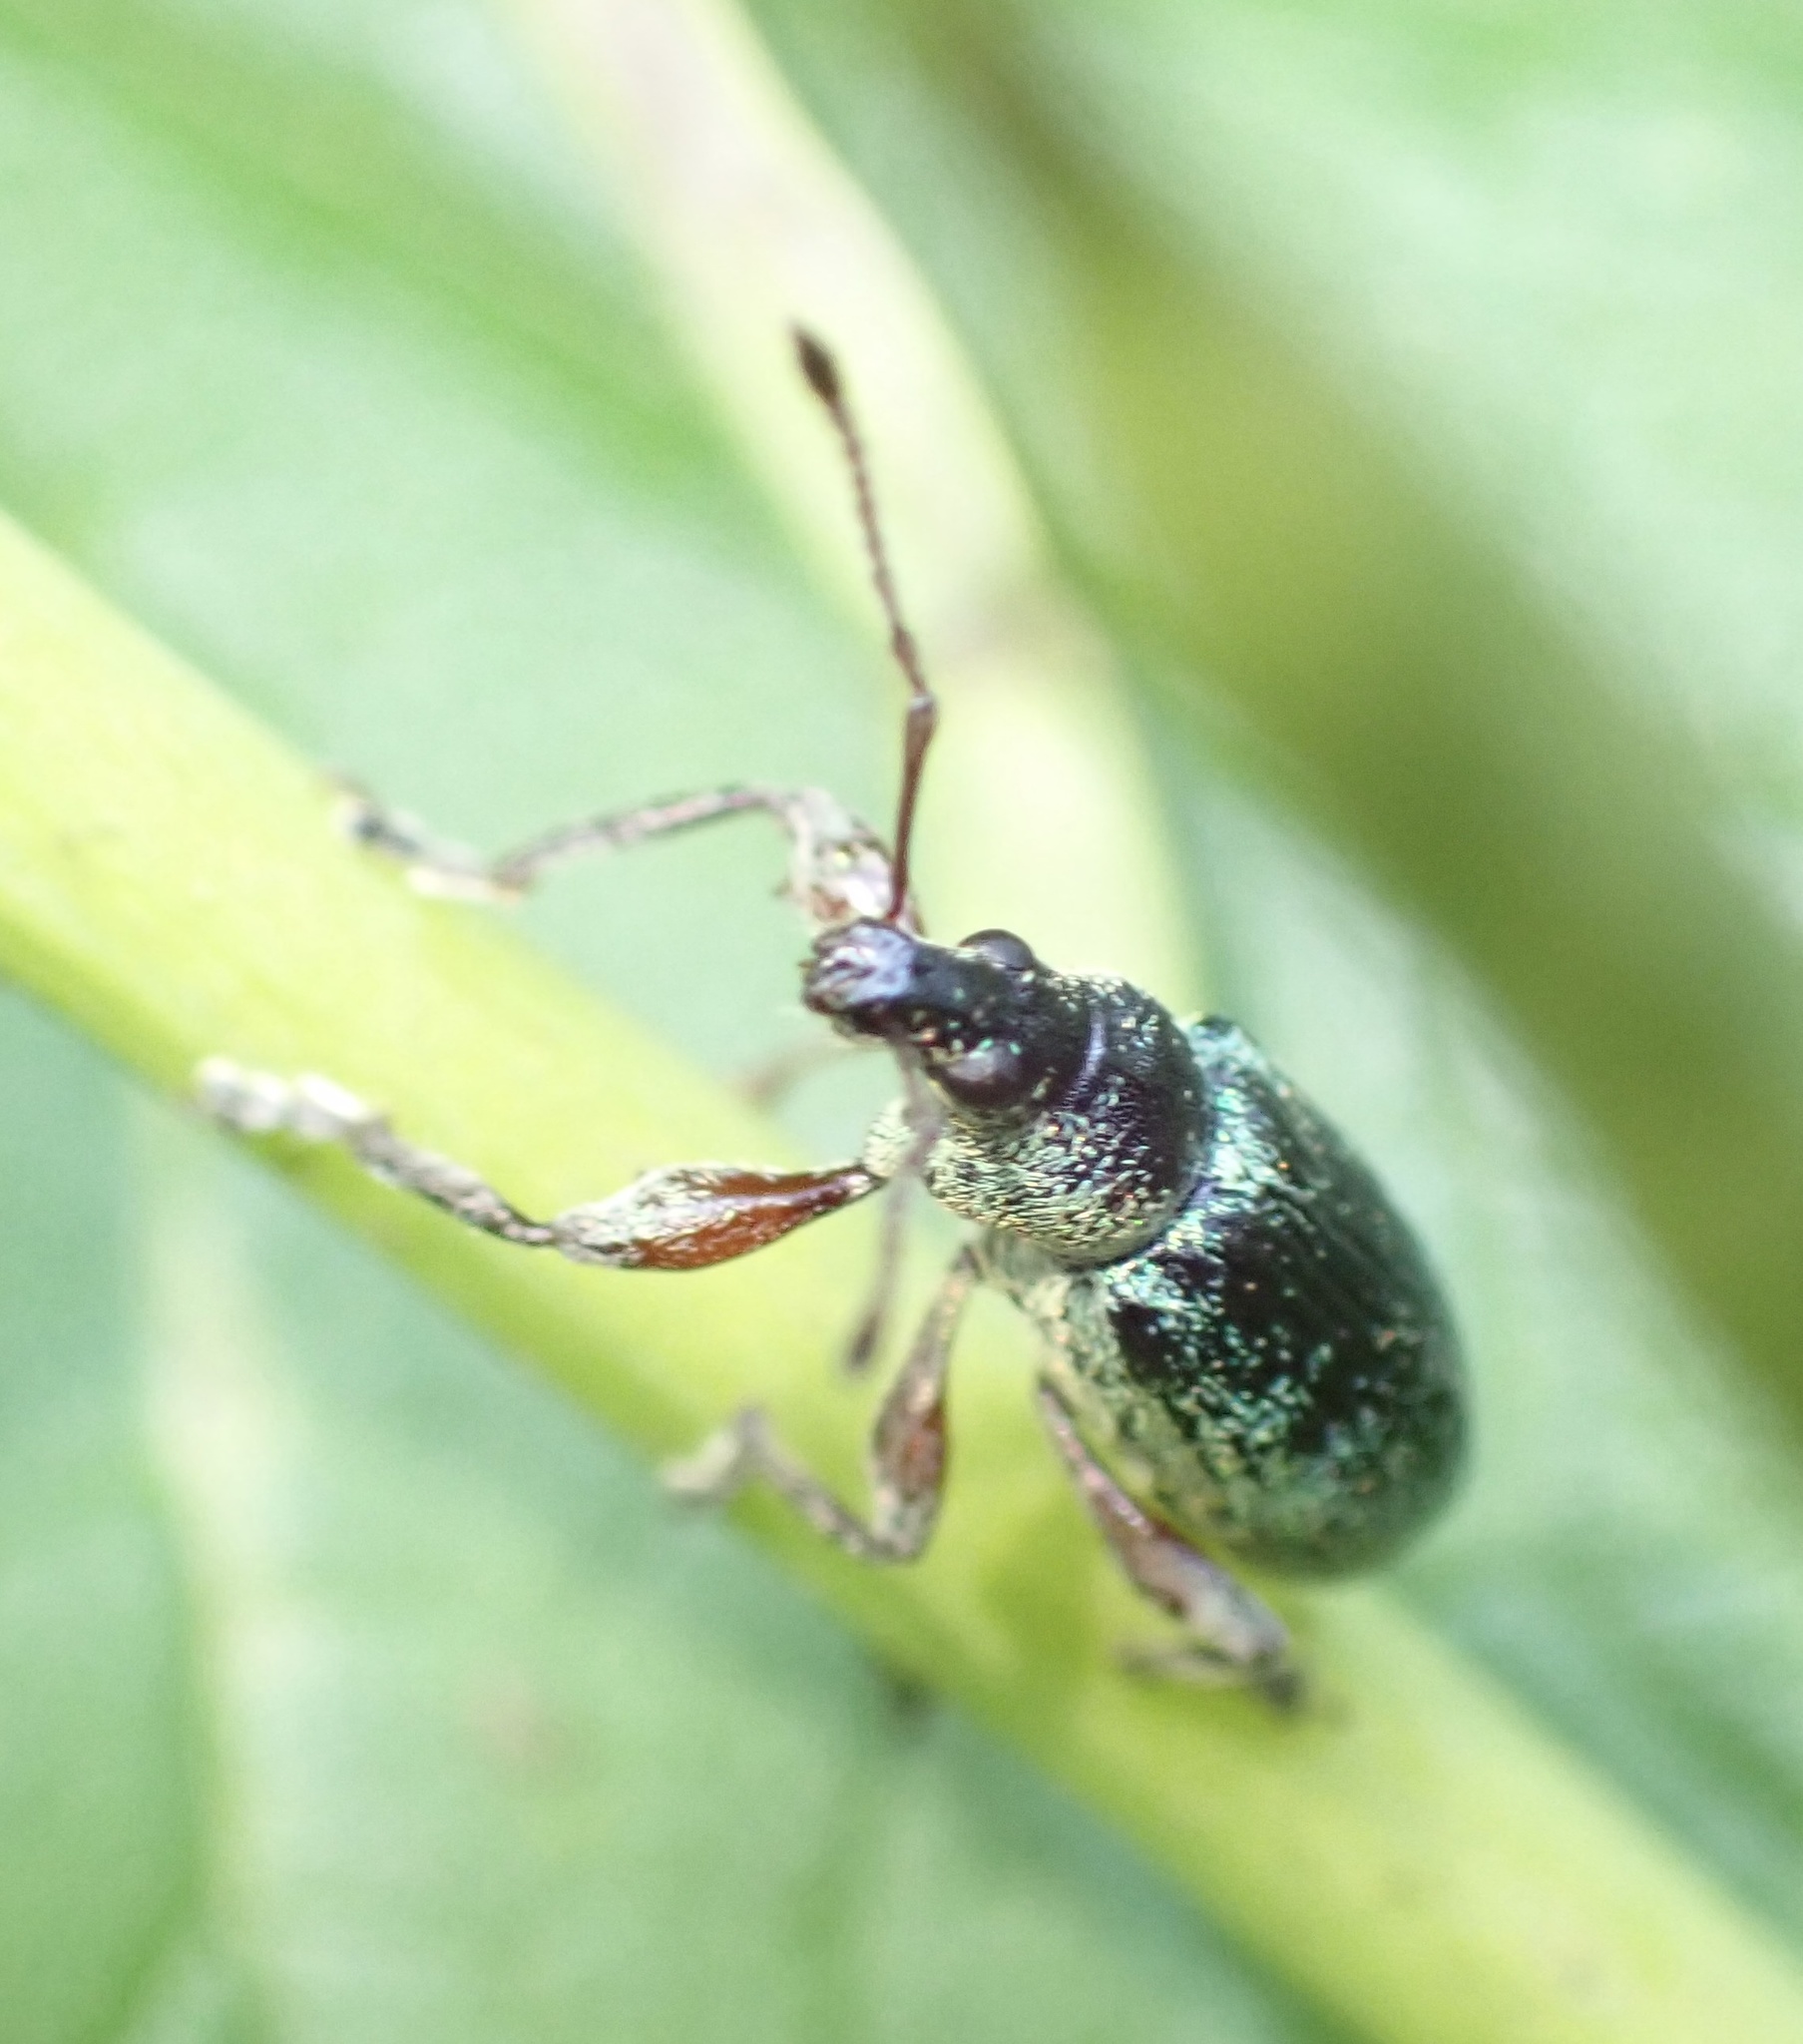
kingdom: Animalia
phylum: Arthropoda
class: Insecta
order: Coleoptera
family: Curculionidae
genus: Phyllobius
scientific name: Phyllobius glaucus
